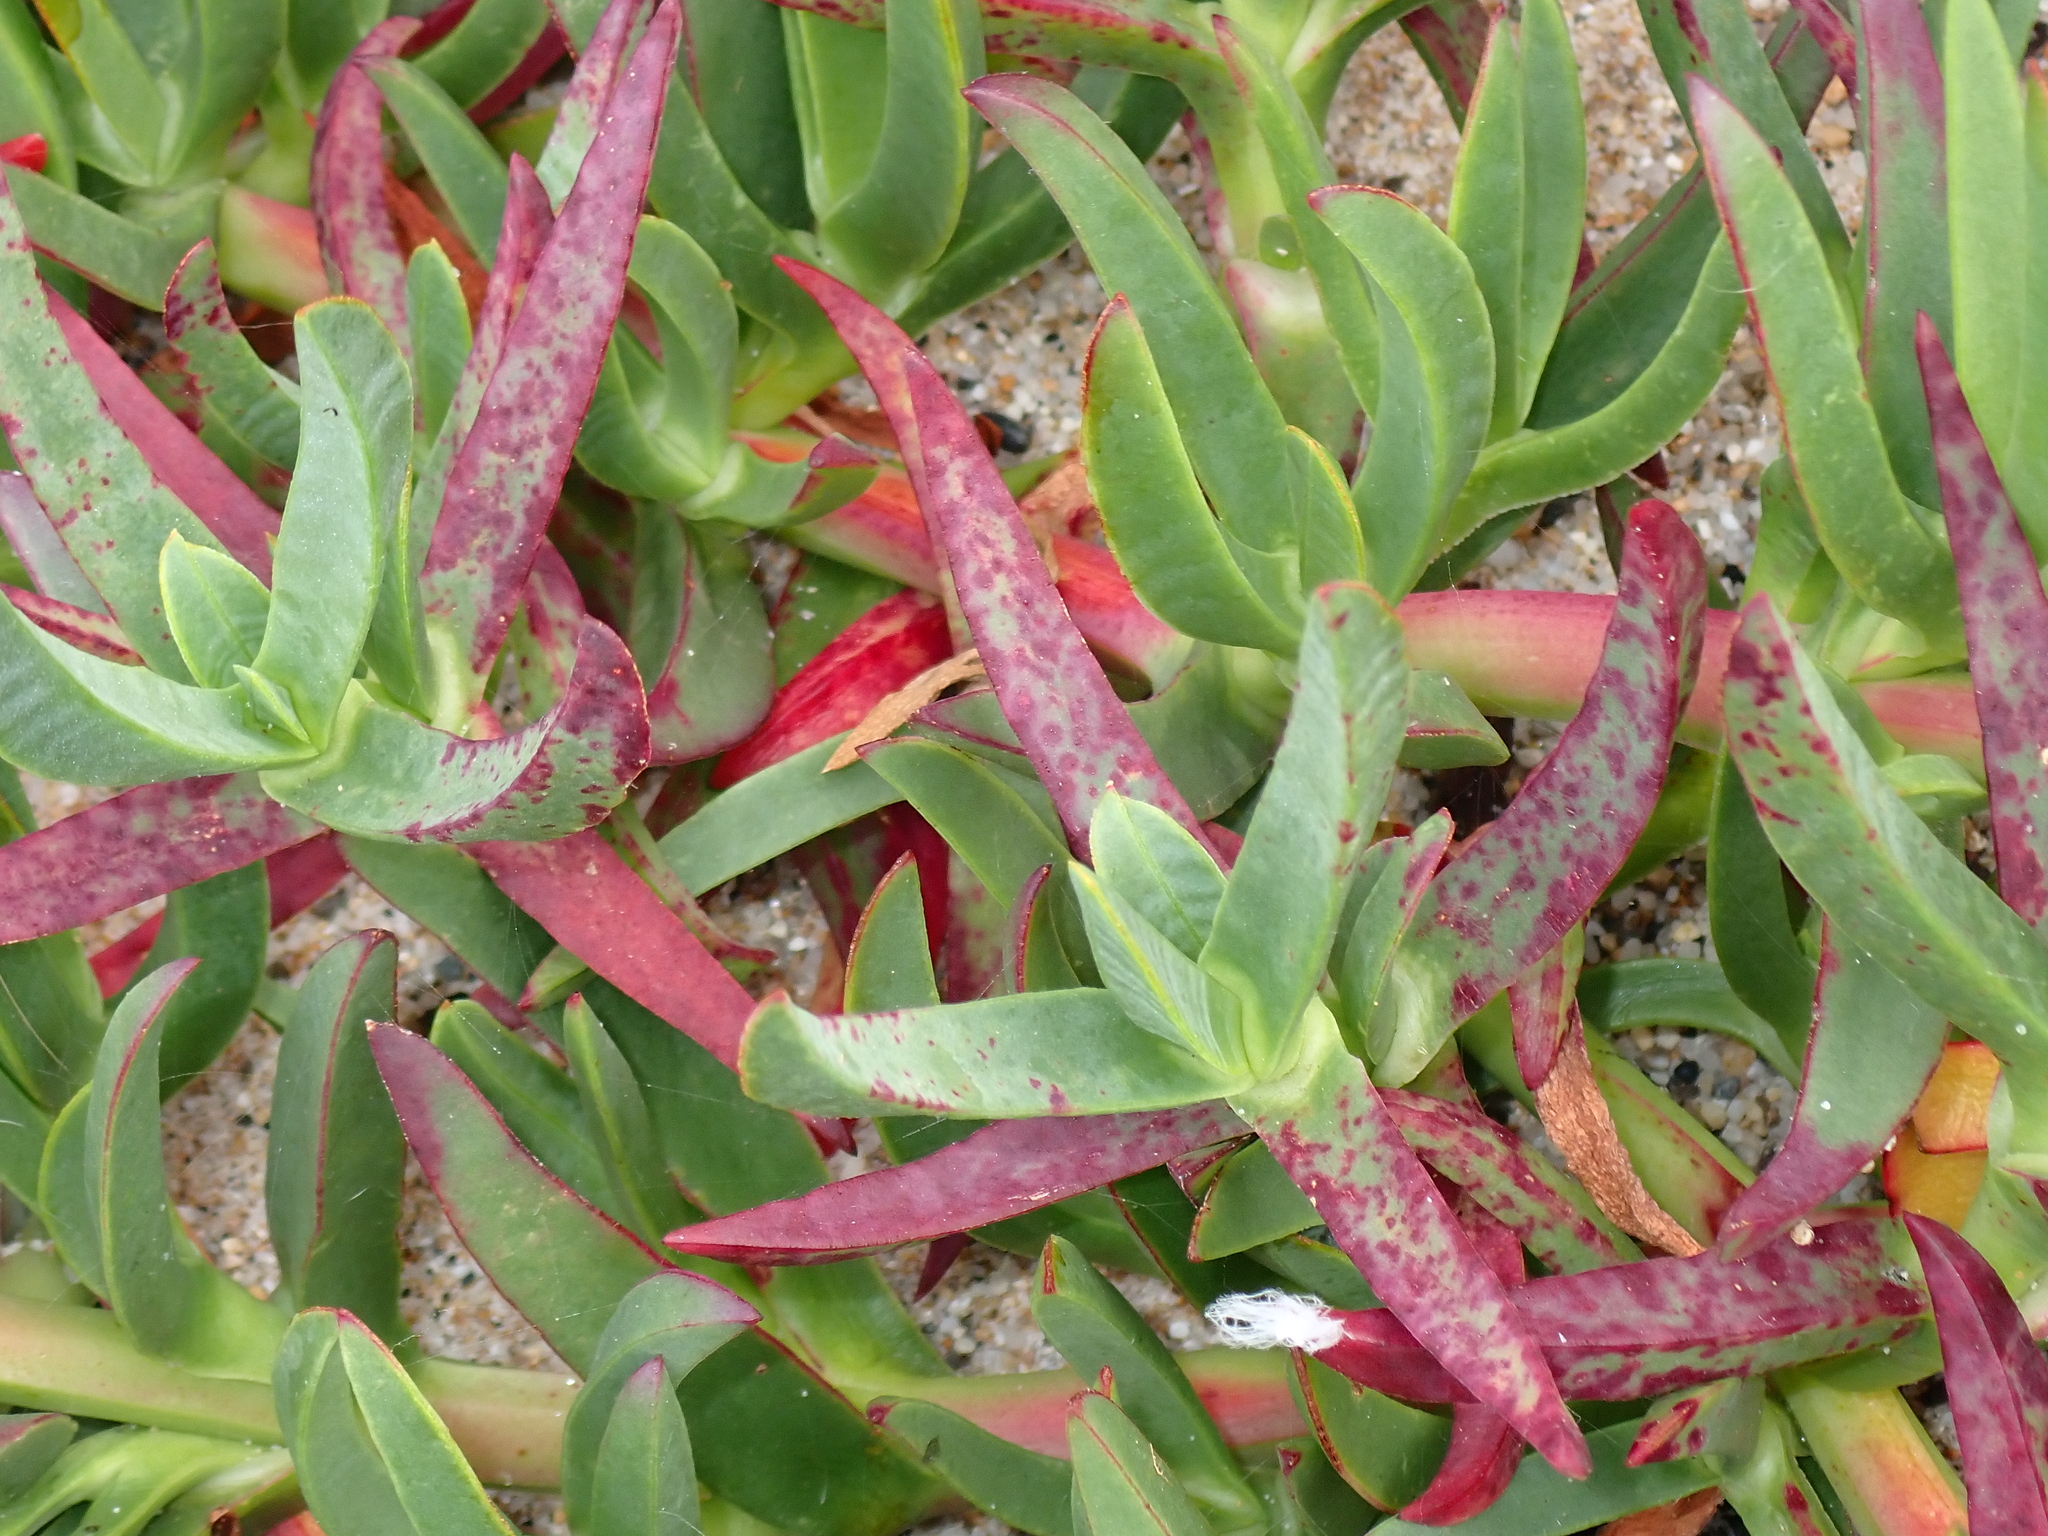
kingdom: Plantae
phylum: Tracheophyta
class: Magnoliopsida
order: Caryophyllales
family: Aizoaceae
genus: Carpobrotus
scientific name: Carpobrotus edulis
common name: Hottentot-fig
